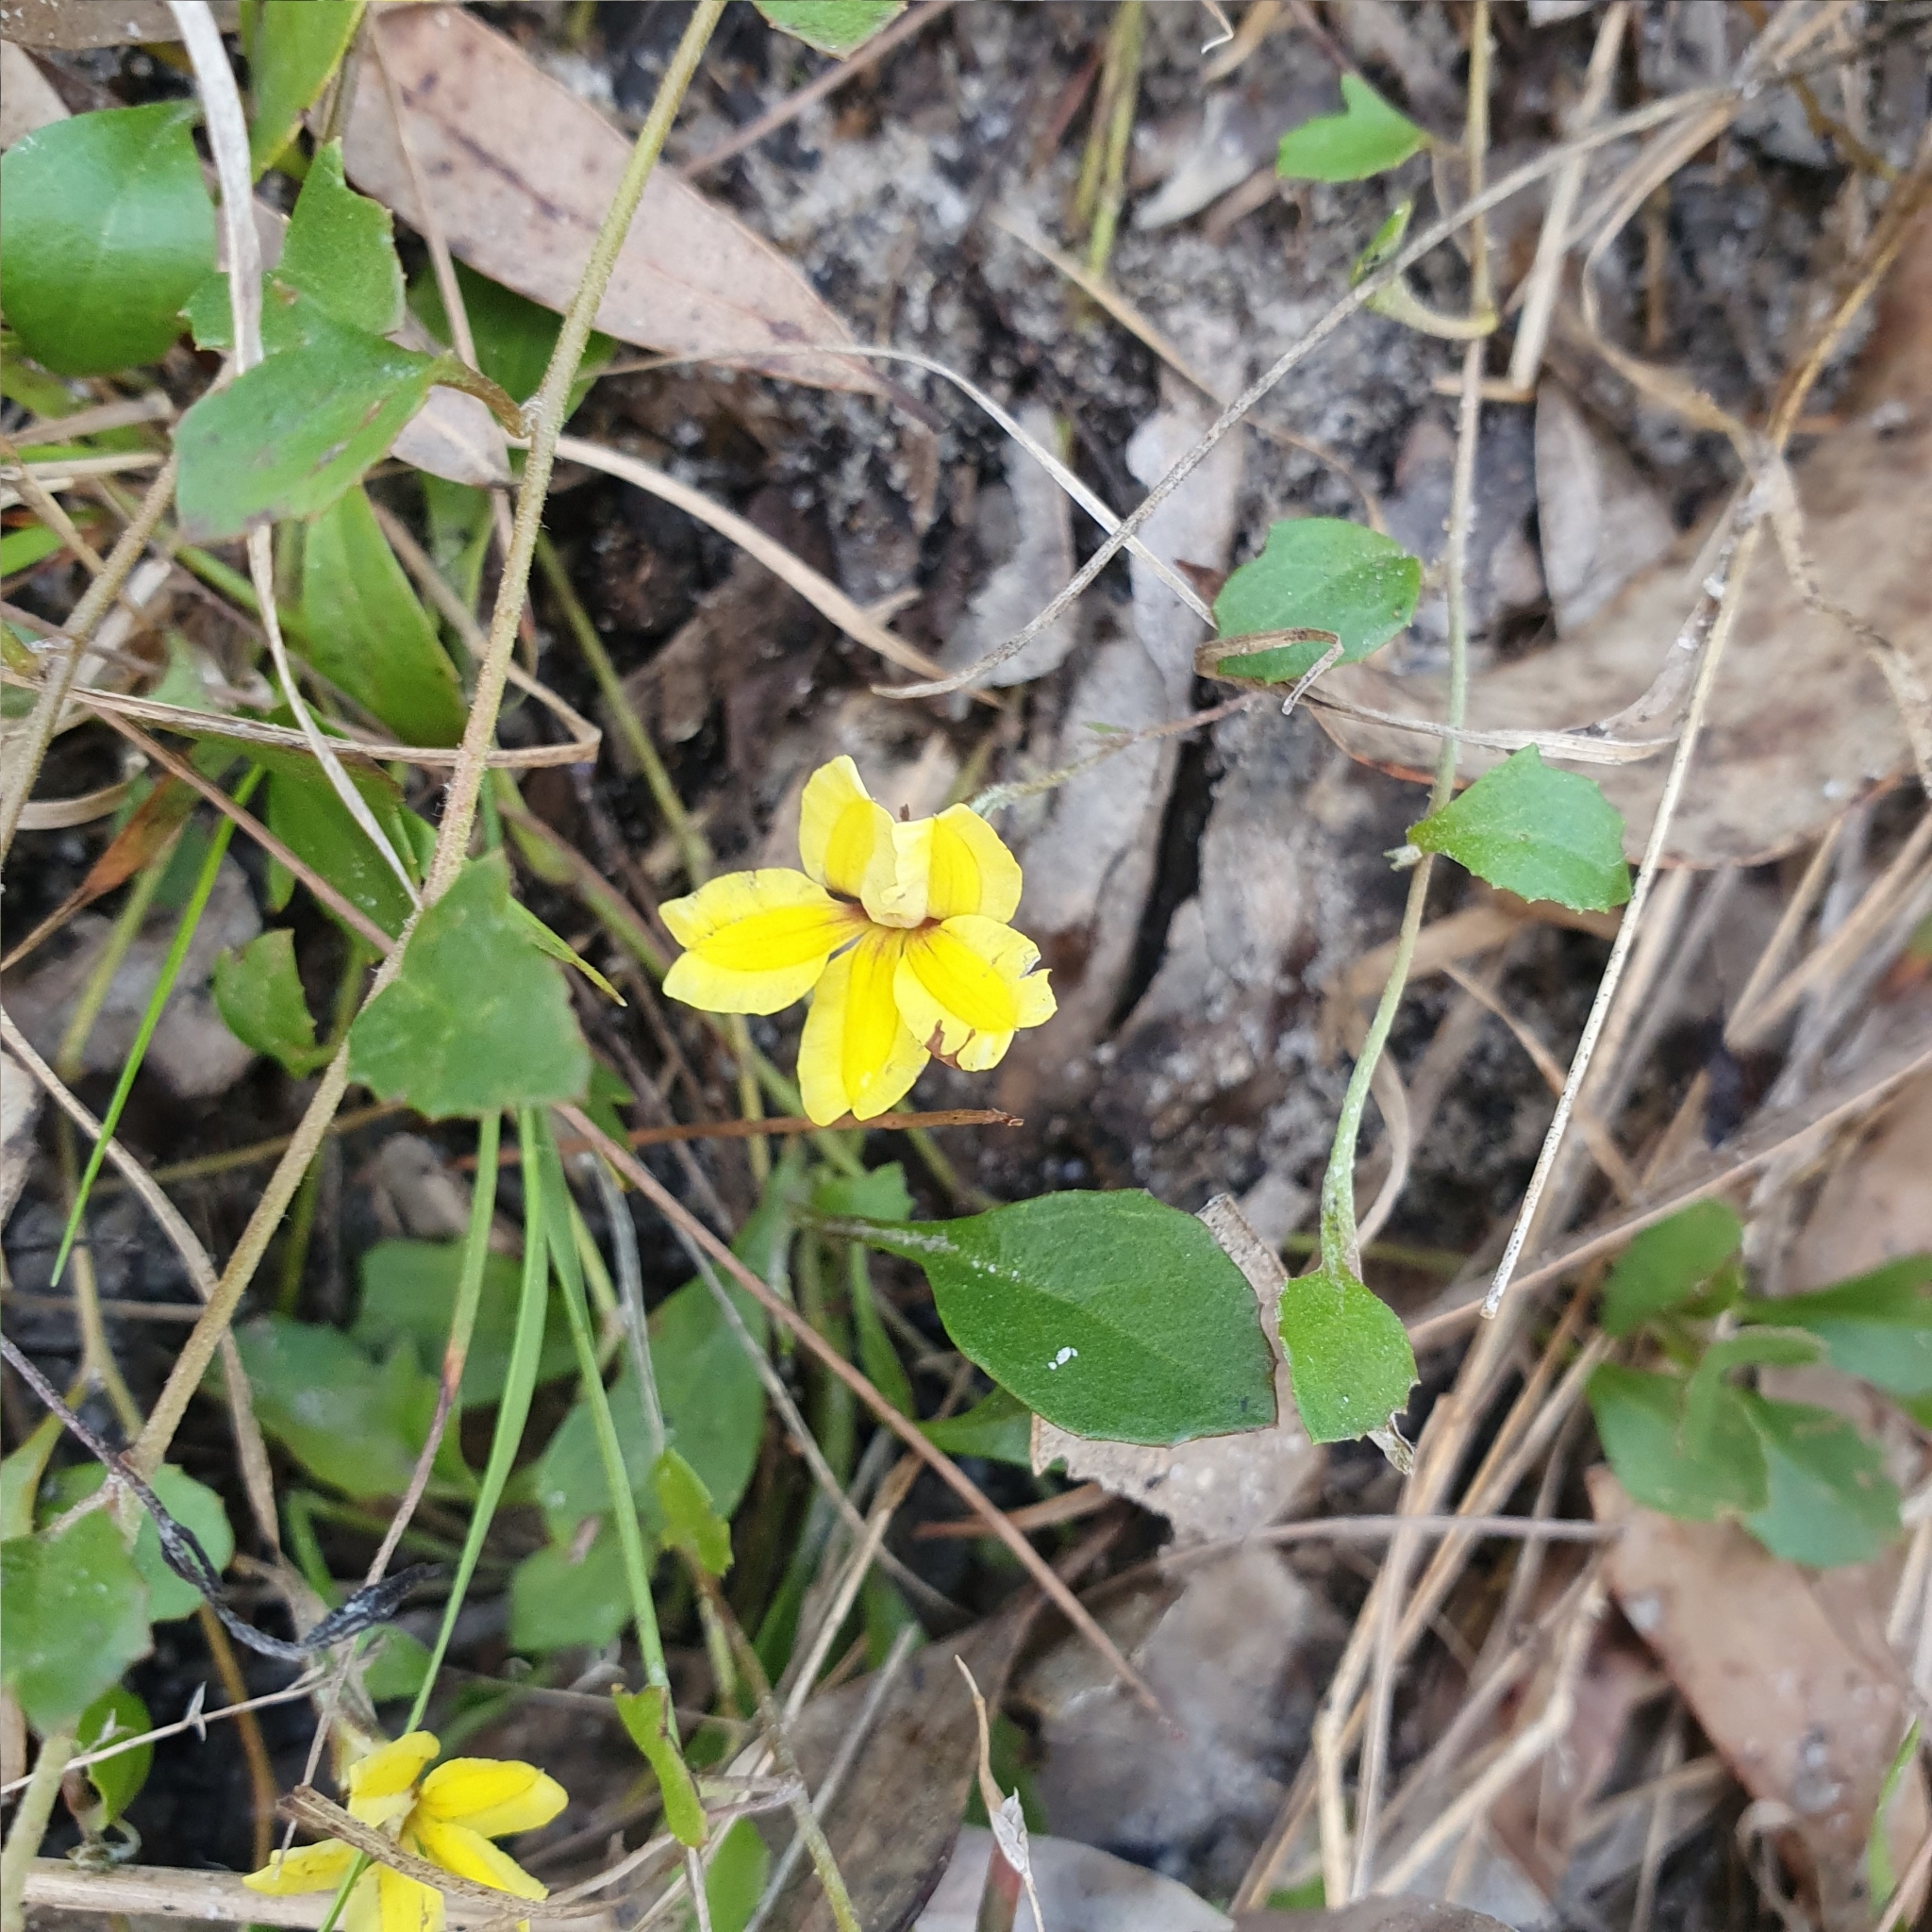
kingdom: Plantae
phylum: Tracheophyta
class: Magnoliopsida
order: Asterales
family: Goodeniaceae
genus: Goodenia
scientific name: Goodenia hederacea
